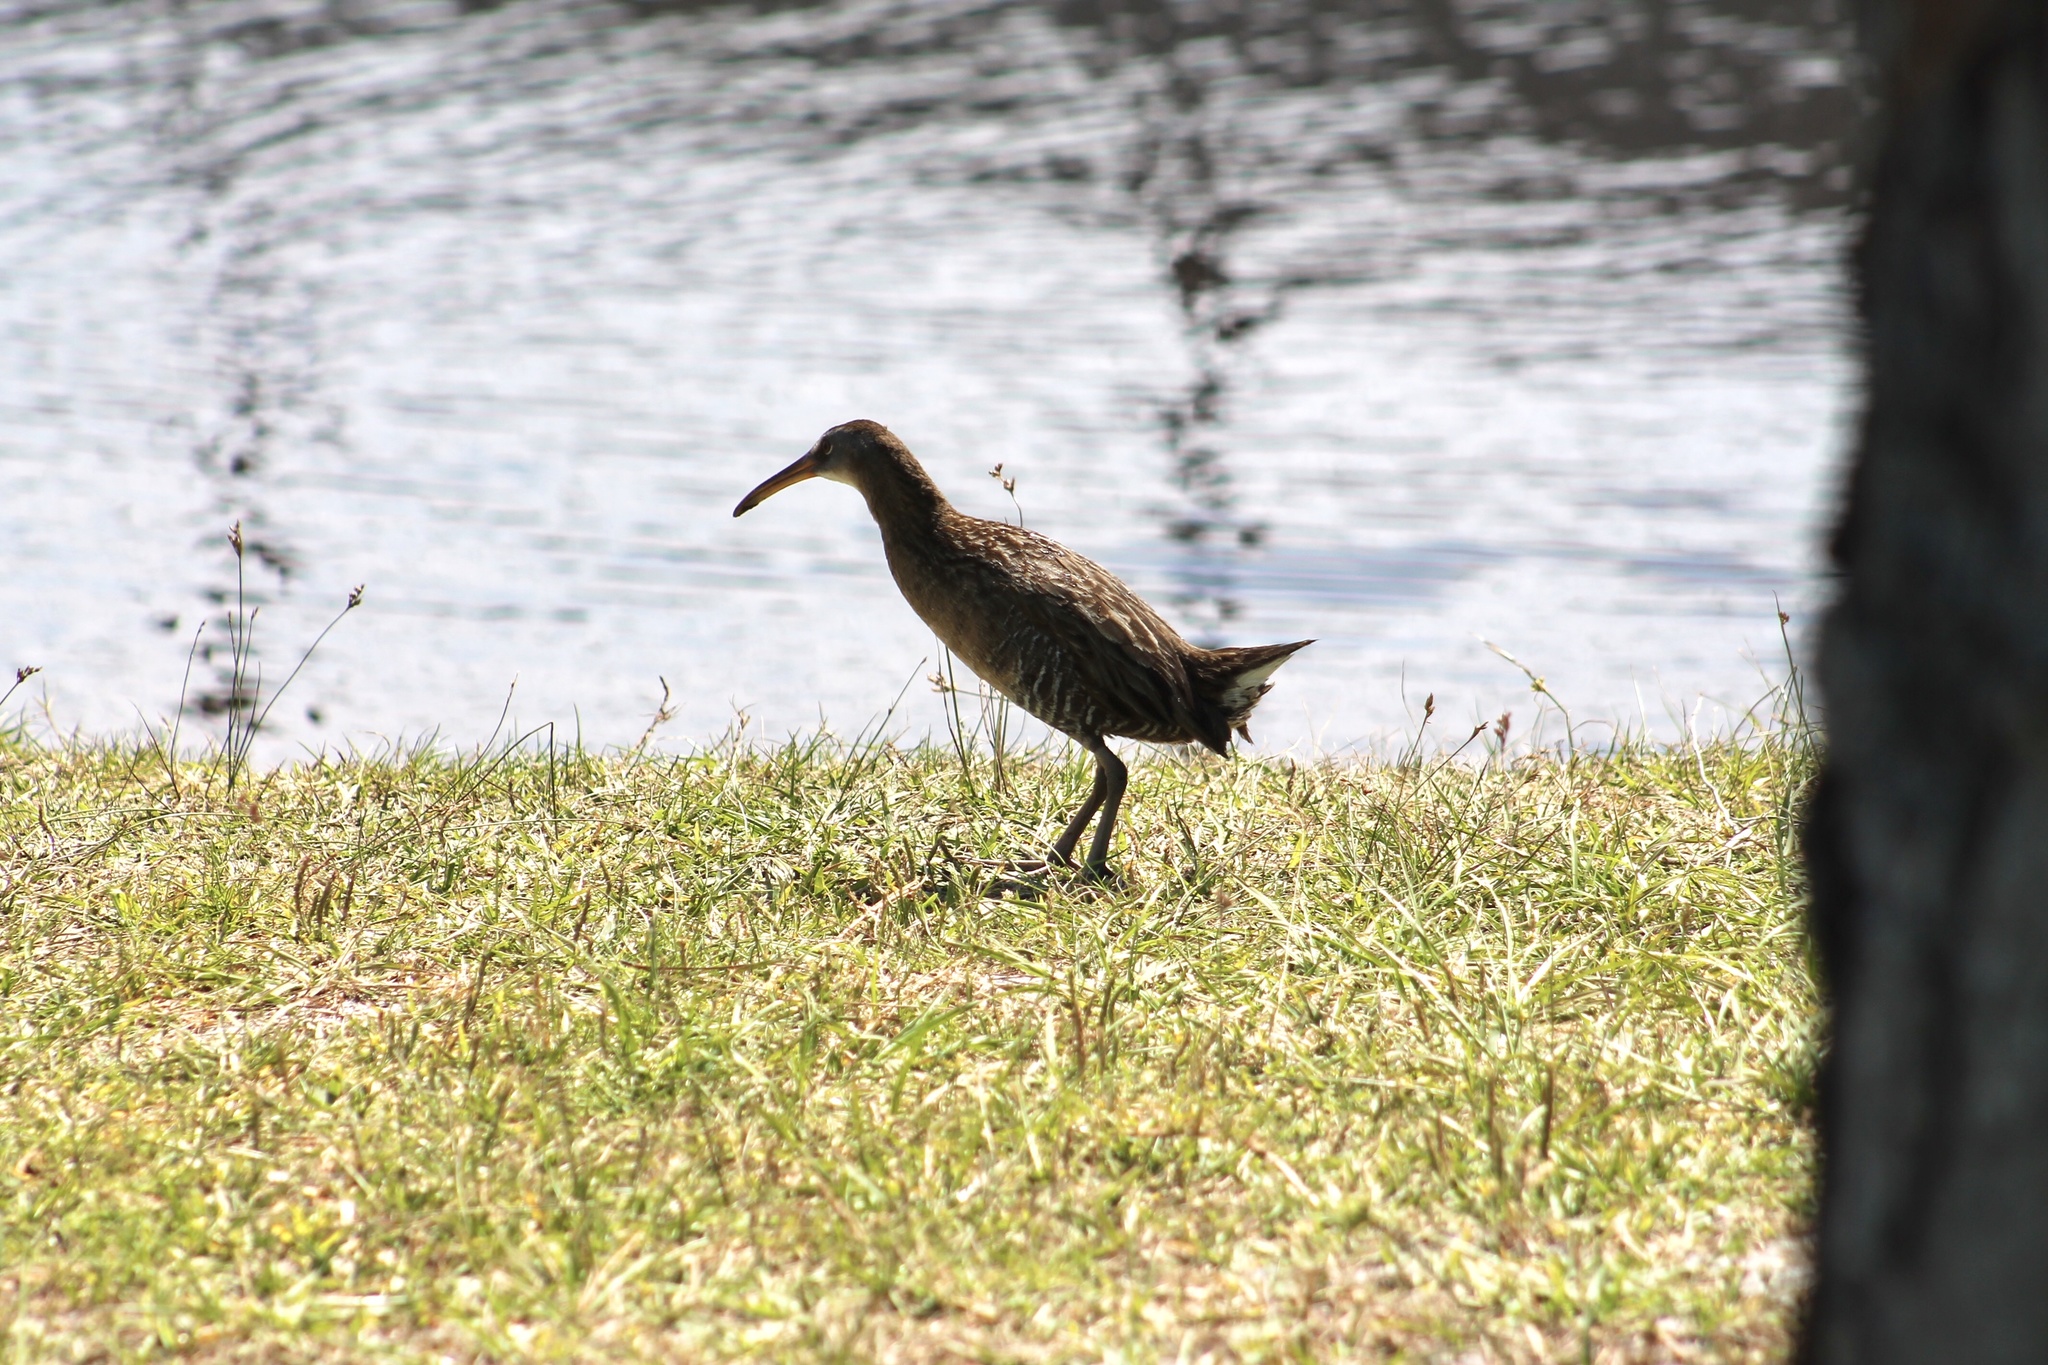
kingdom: Animalia
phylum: Chordata
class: Aves
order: Gruiformes
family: Rallidae
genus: Rallus
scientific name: Rallus crepitans
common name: Clapper rail
